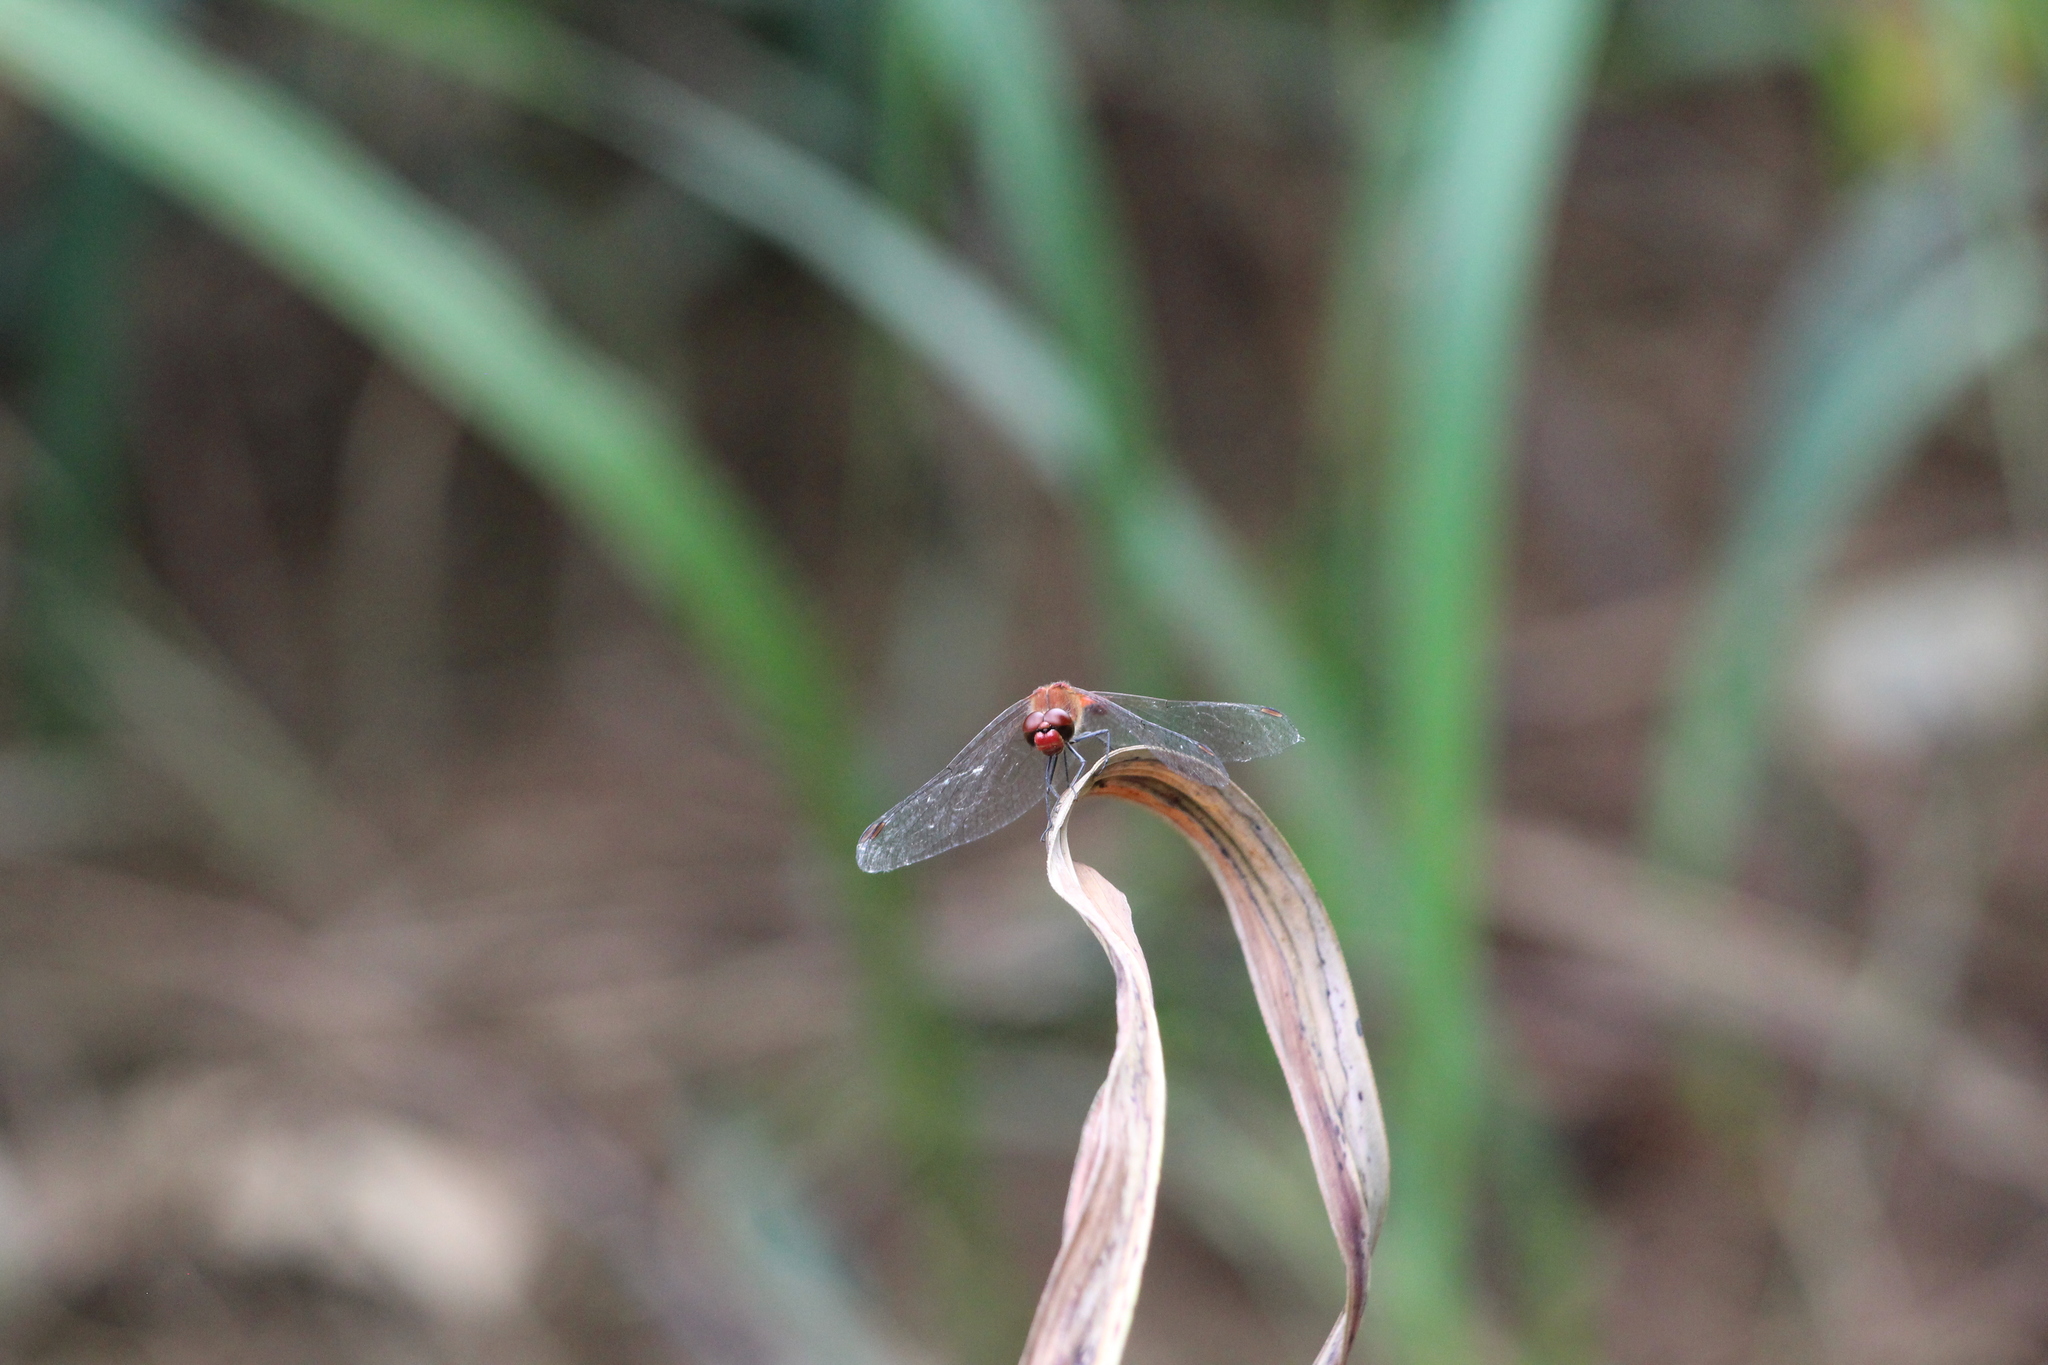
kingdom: Animalia
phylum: Arthropoda
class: Insecta
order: Odonata
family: Libellulidae
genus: Sympetrum
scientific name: Sympetrum sanguineum
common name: Ruddy darter
